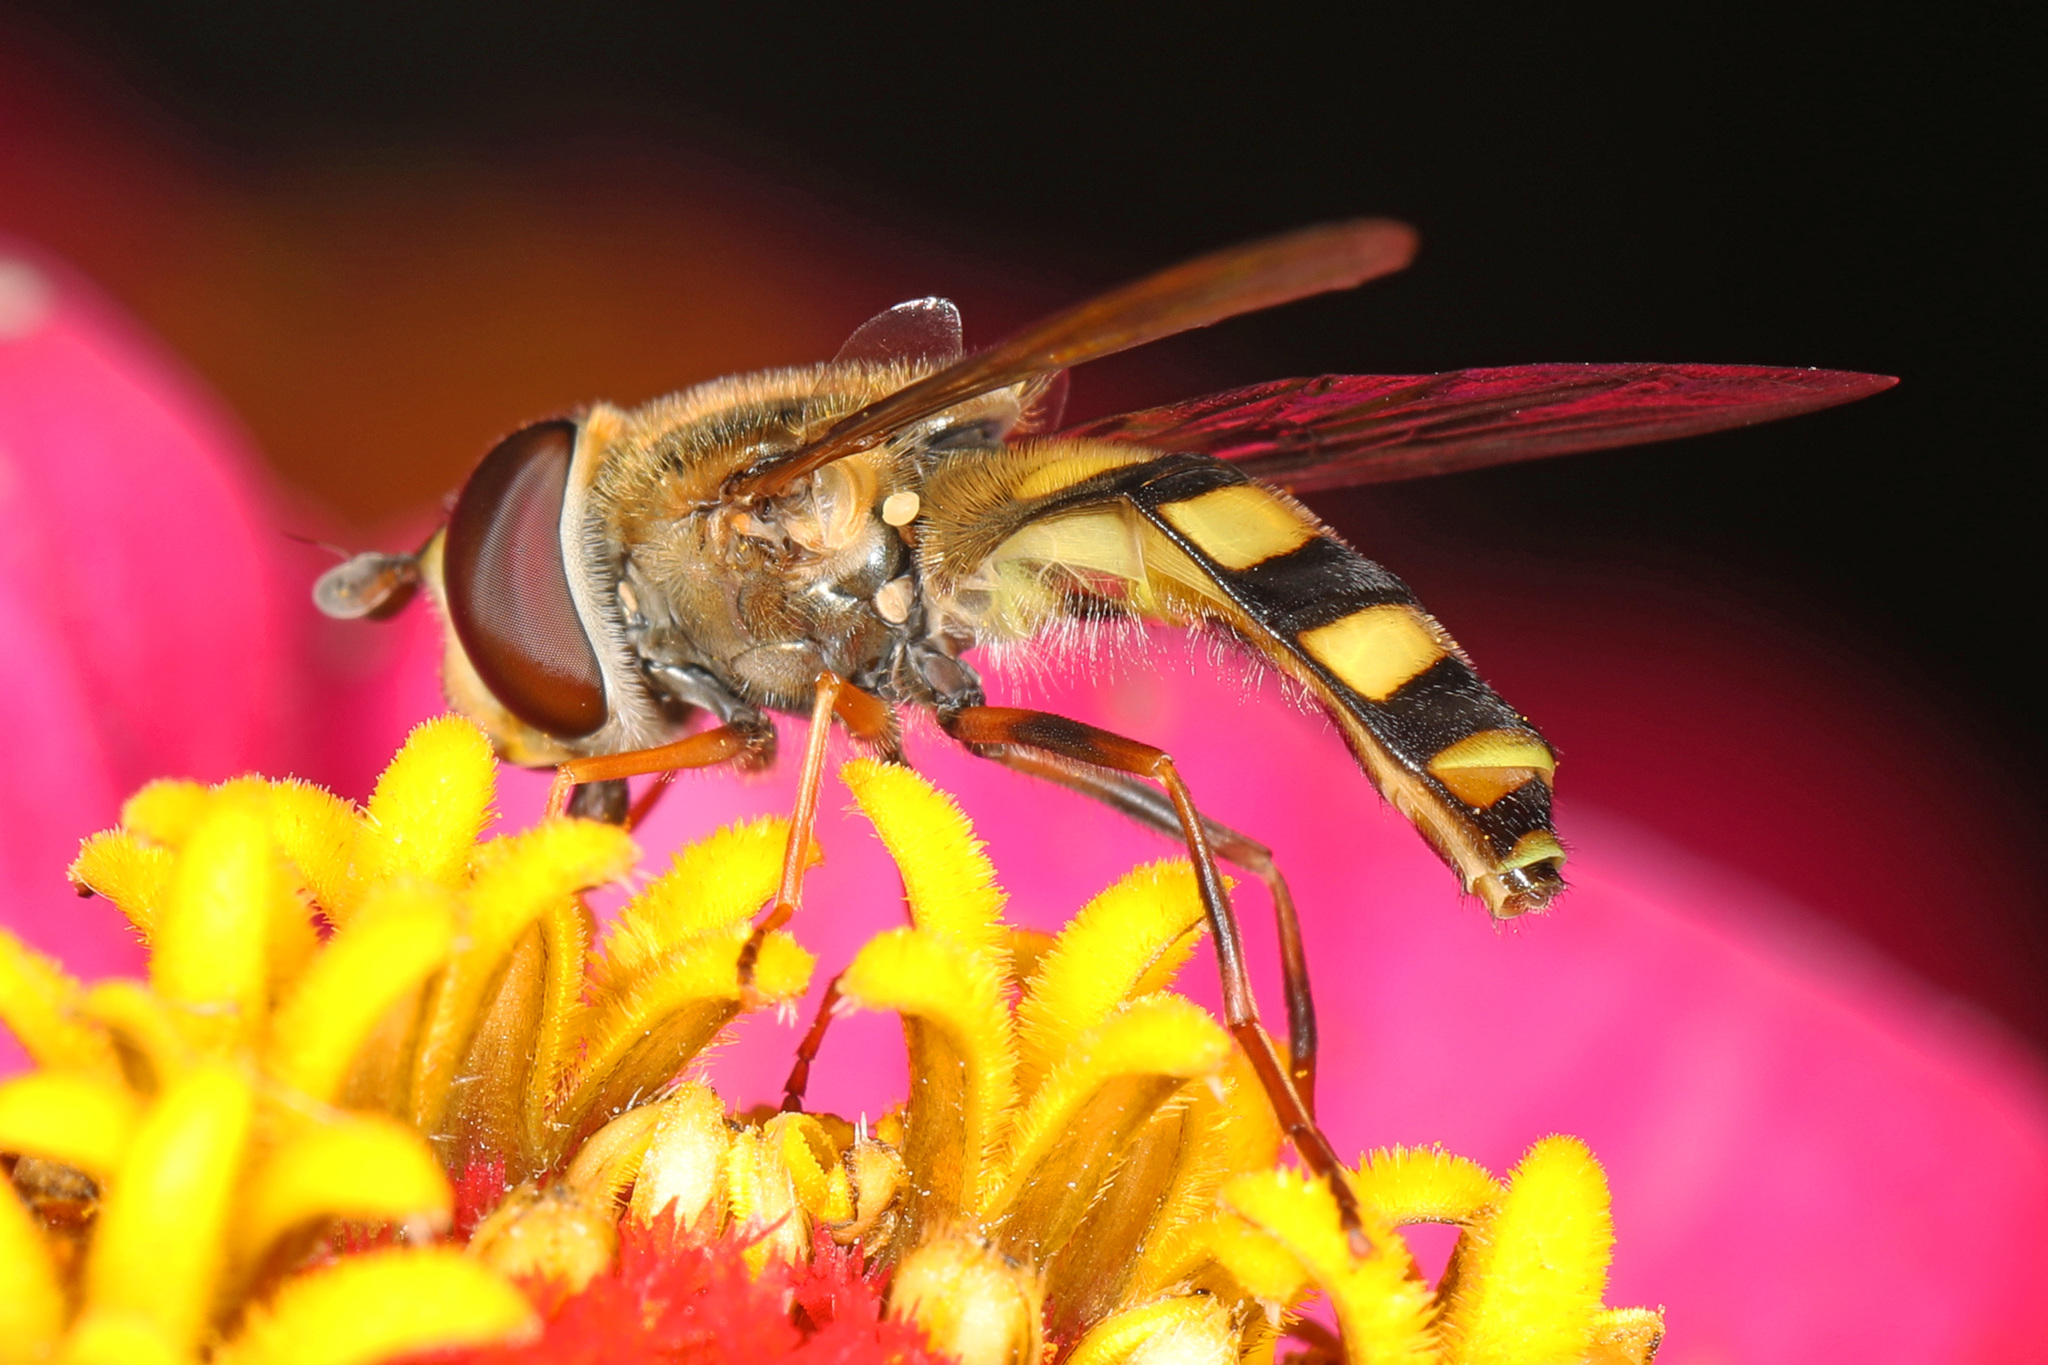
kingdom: Animalia
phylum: Arthropoda
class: Insecta
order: Diptera
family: Syrphidae
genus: Eupeodes
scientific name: Eupeodes
